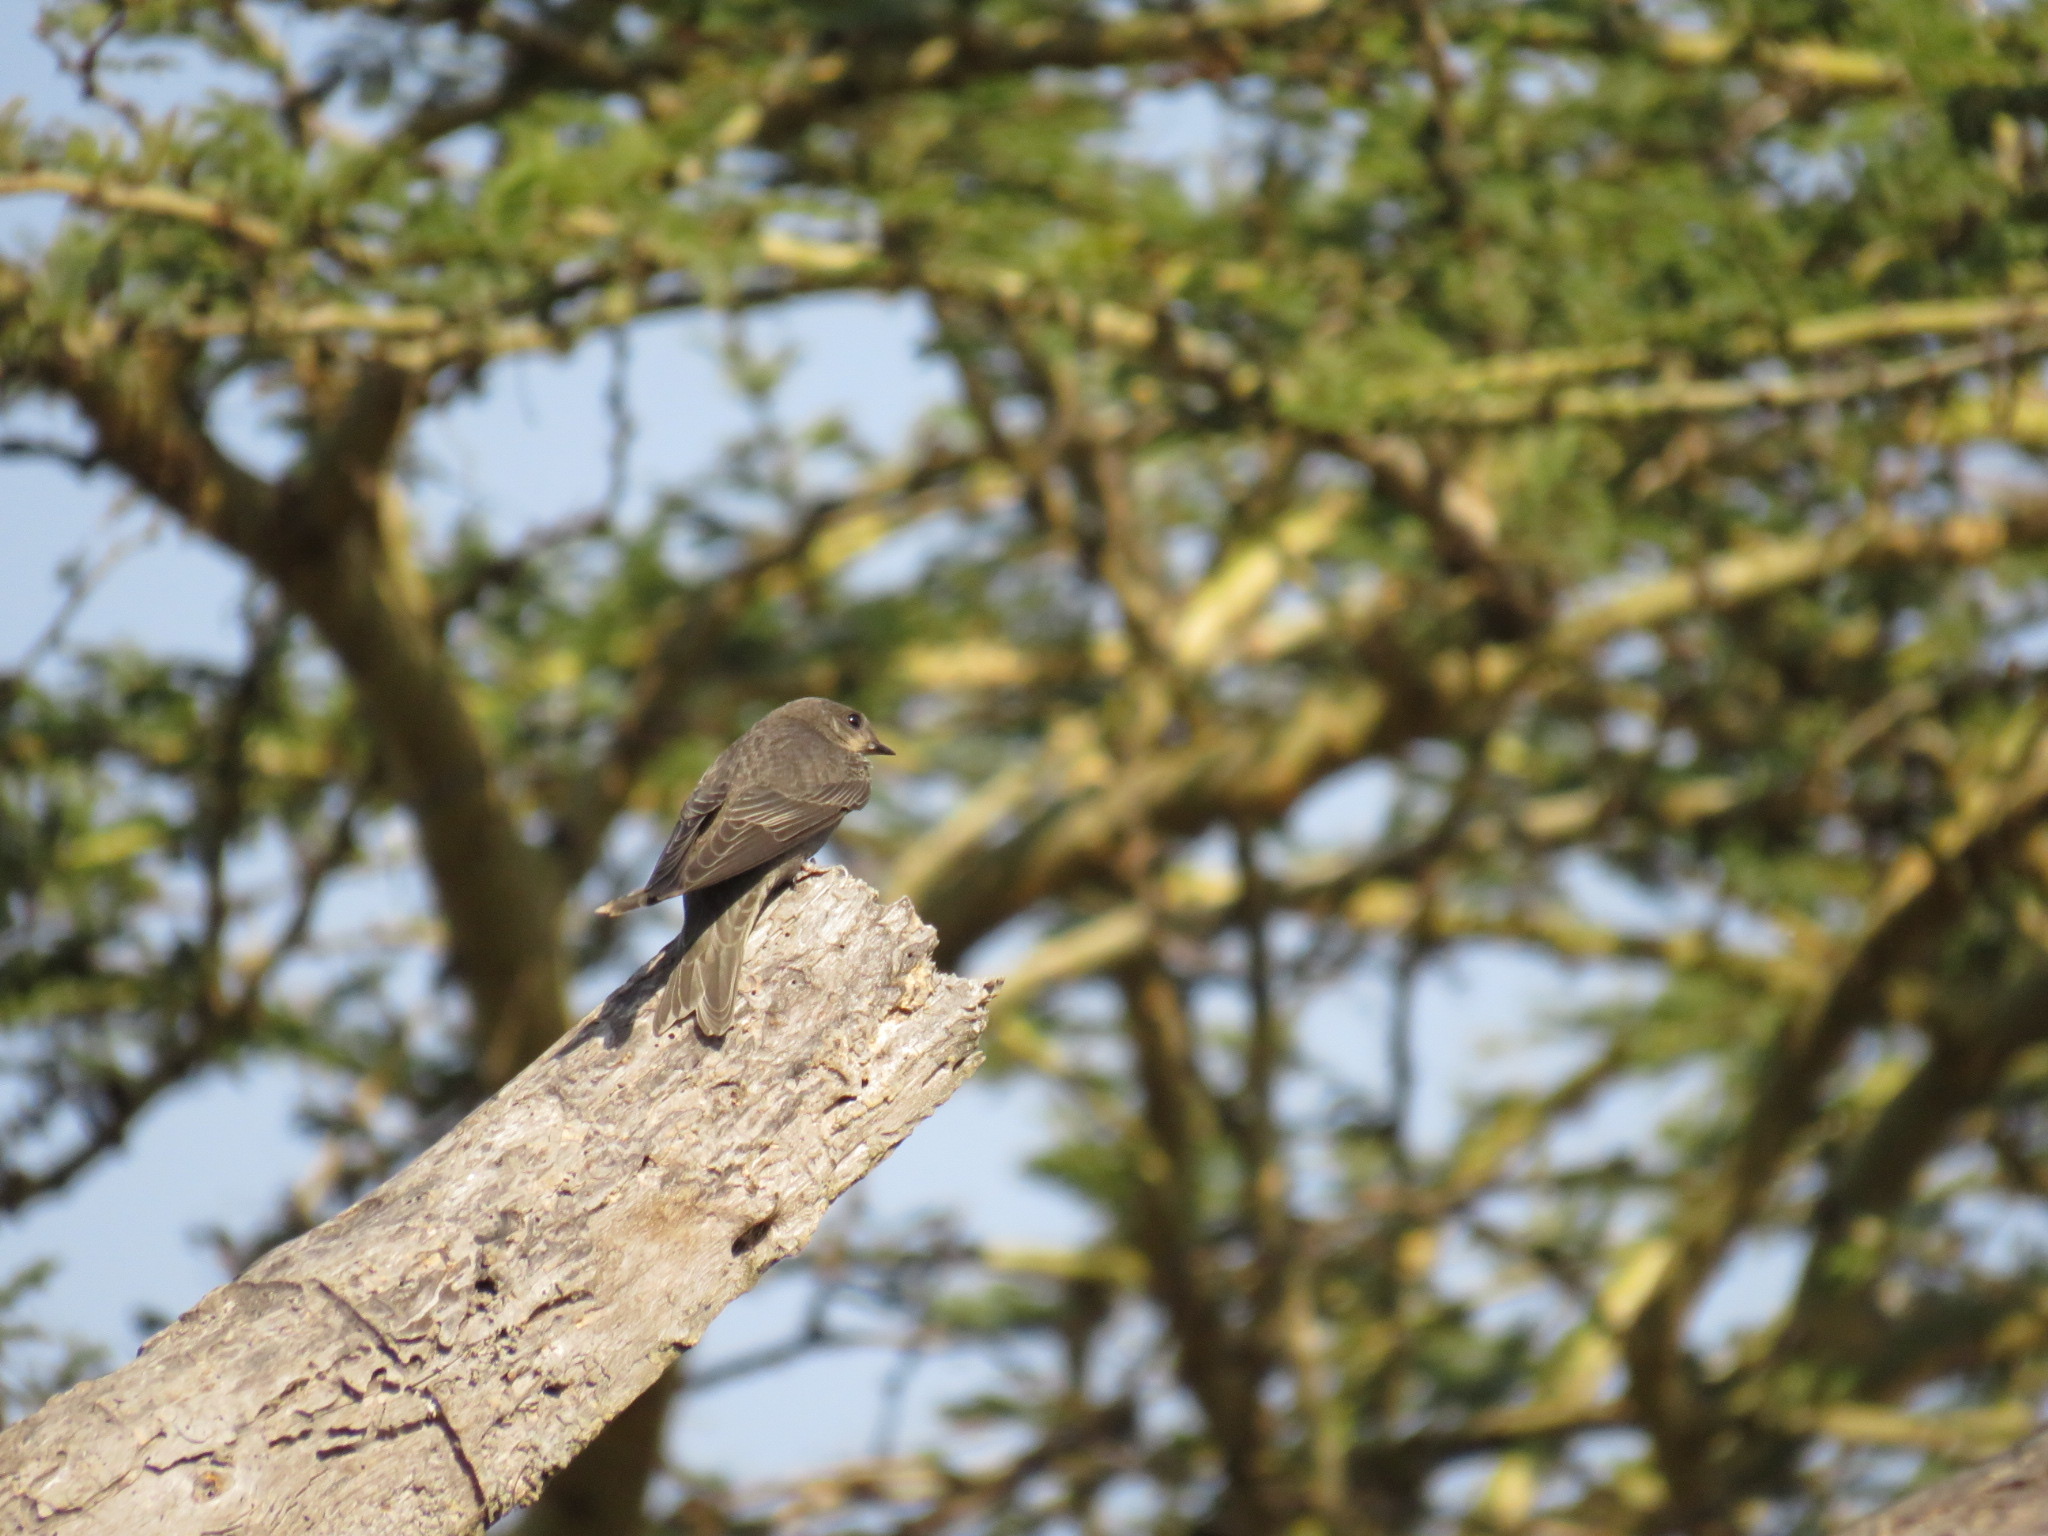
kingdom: Animalia
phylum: Chordata
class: Aves
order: Passeriformes
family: Hirundinidae
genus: Ptyonoprogne
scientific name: Ptyonoprogne fuligula
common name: Rock martin
